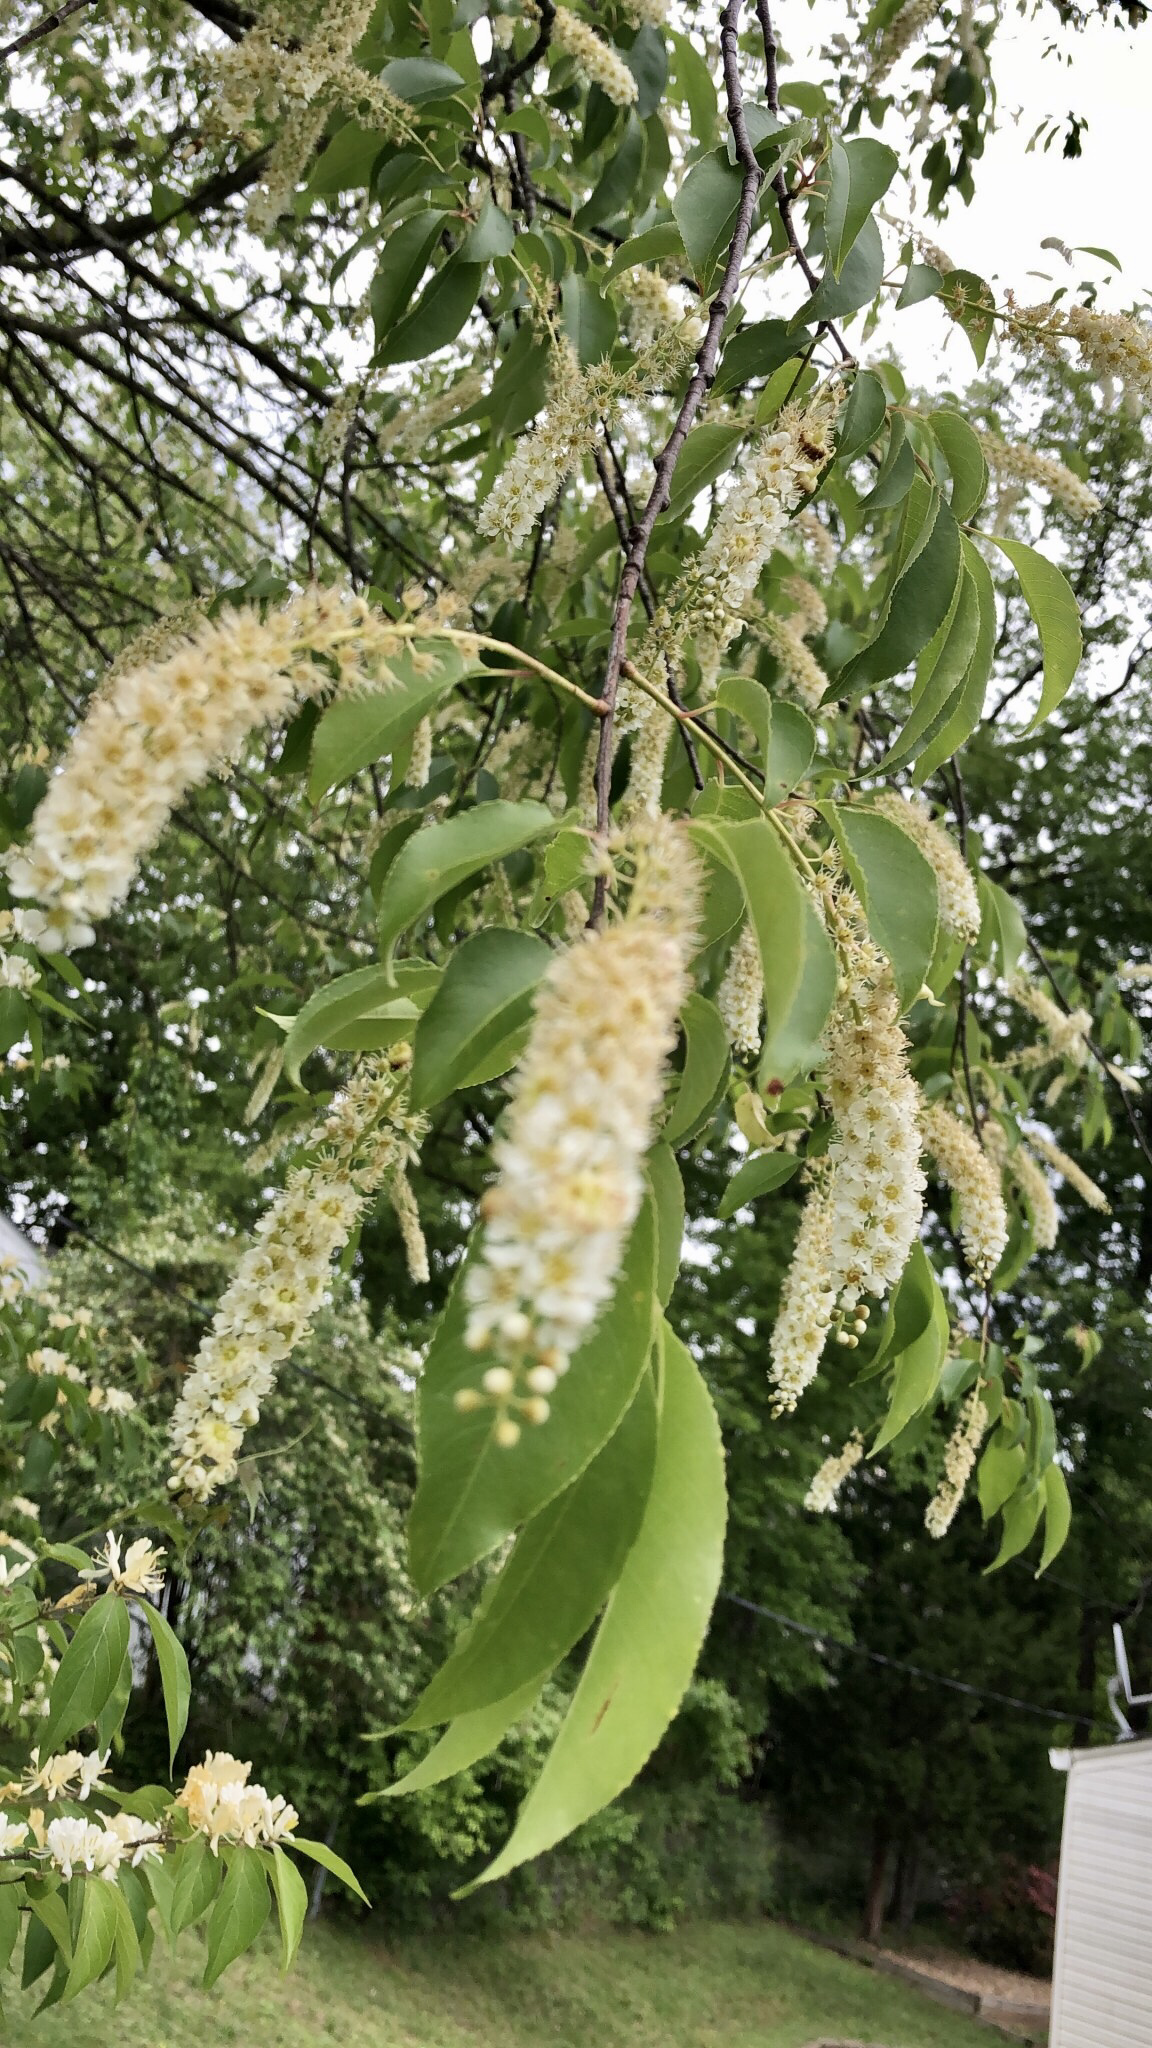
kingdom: Plantae
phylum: Tracheophyta
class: Magnoliopsida
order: Rosales
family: Rosaceae
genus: Prunus
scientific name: Prunus serotina
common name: Black cherry
